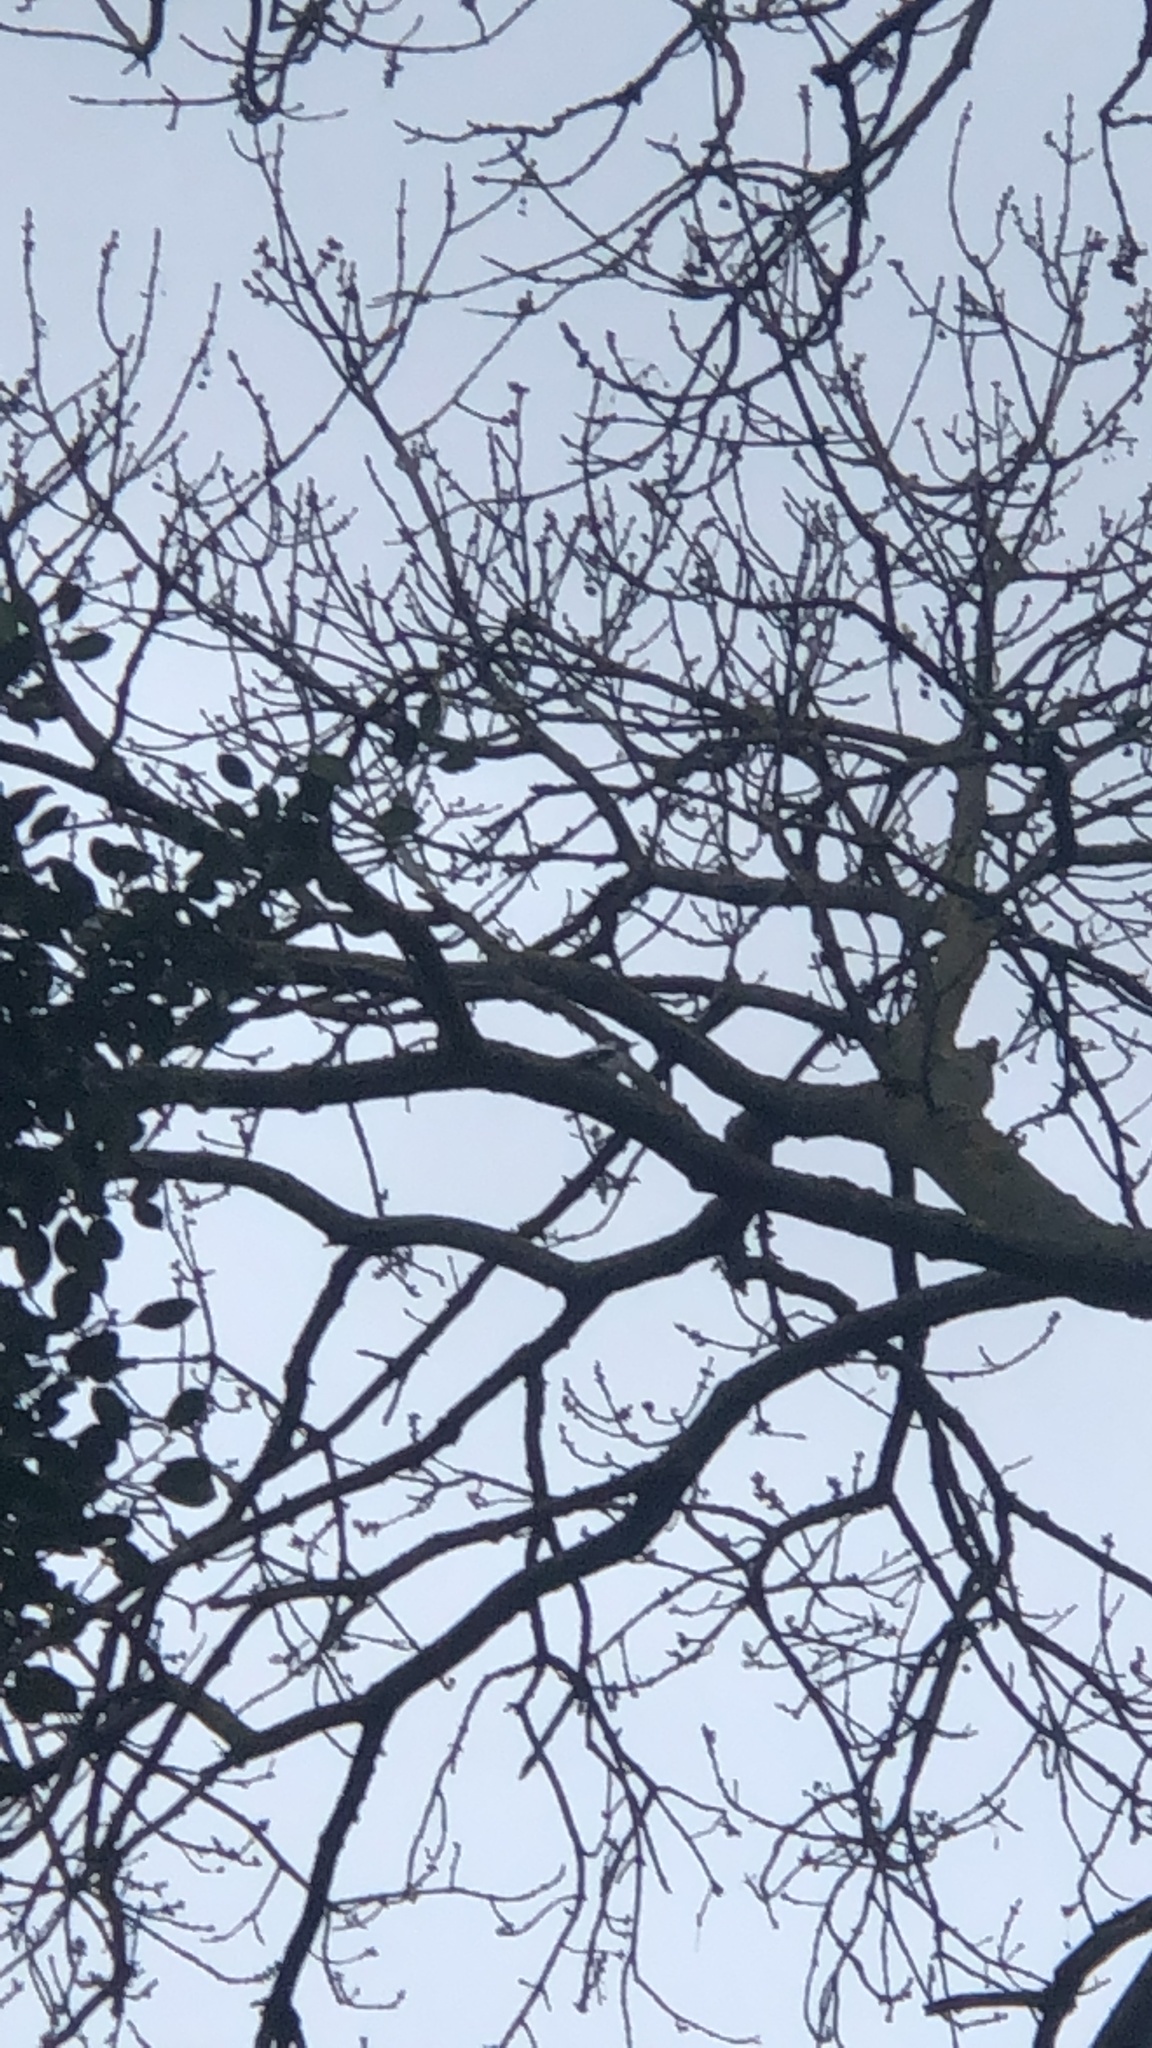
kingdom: Animalia
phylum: Chordata
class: Aves
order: Piciformes
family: Picidae
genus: Dendrocopos
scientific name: Dendrocopos major
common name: Great spotted woodpecker
